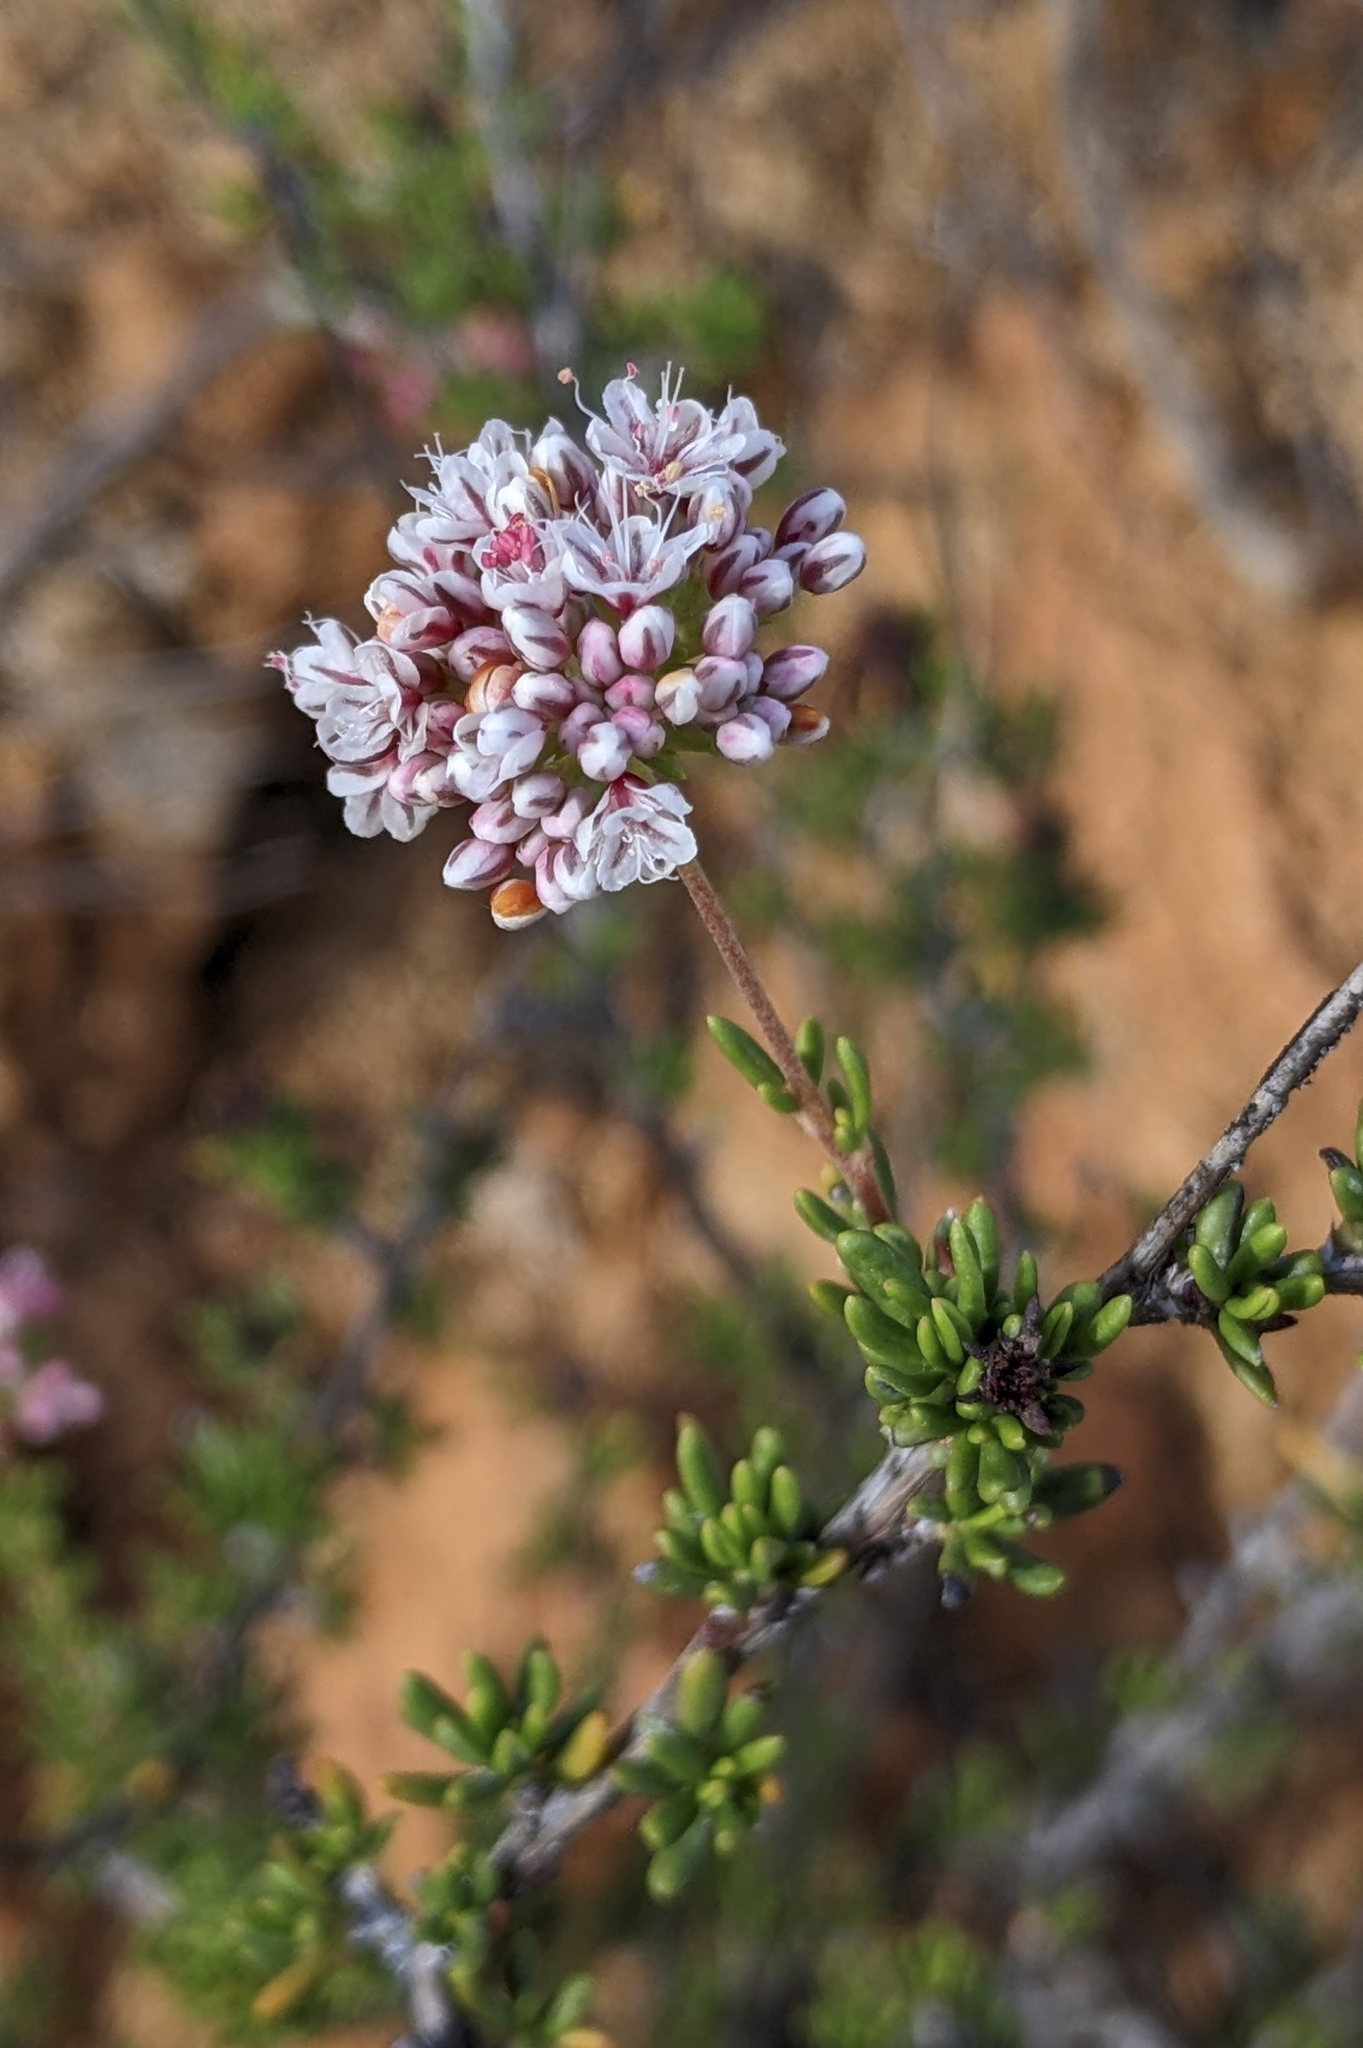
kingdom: Plantae
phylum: Tracheophyta
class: Magnoliopsida
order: Caryophyllales
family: Polygonaceae
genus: Eriogonum
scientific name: Eriogonum fasciculatum
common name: California wild buckwheat
